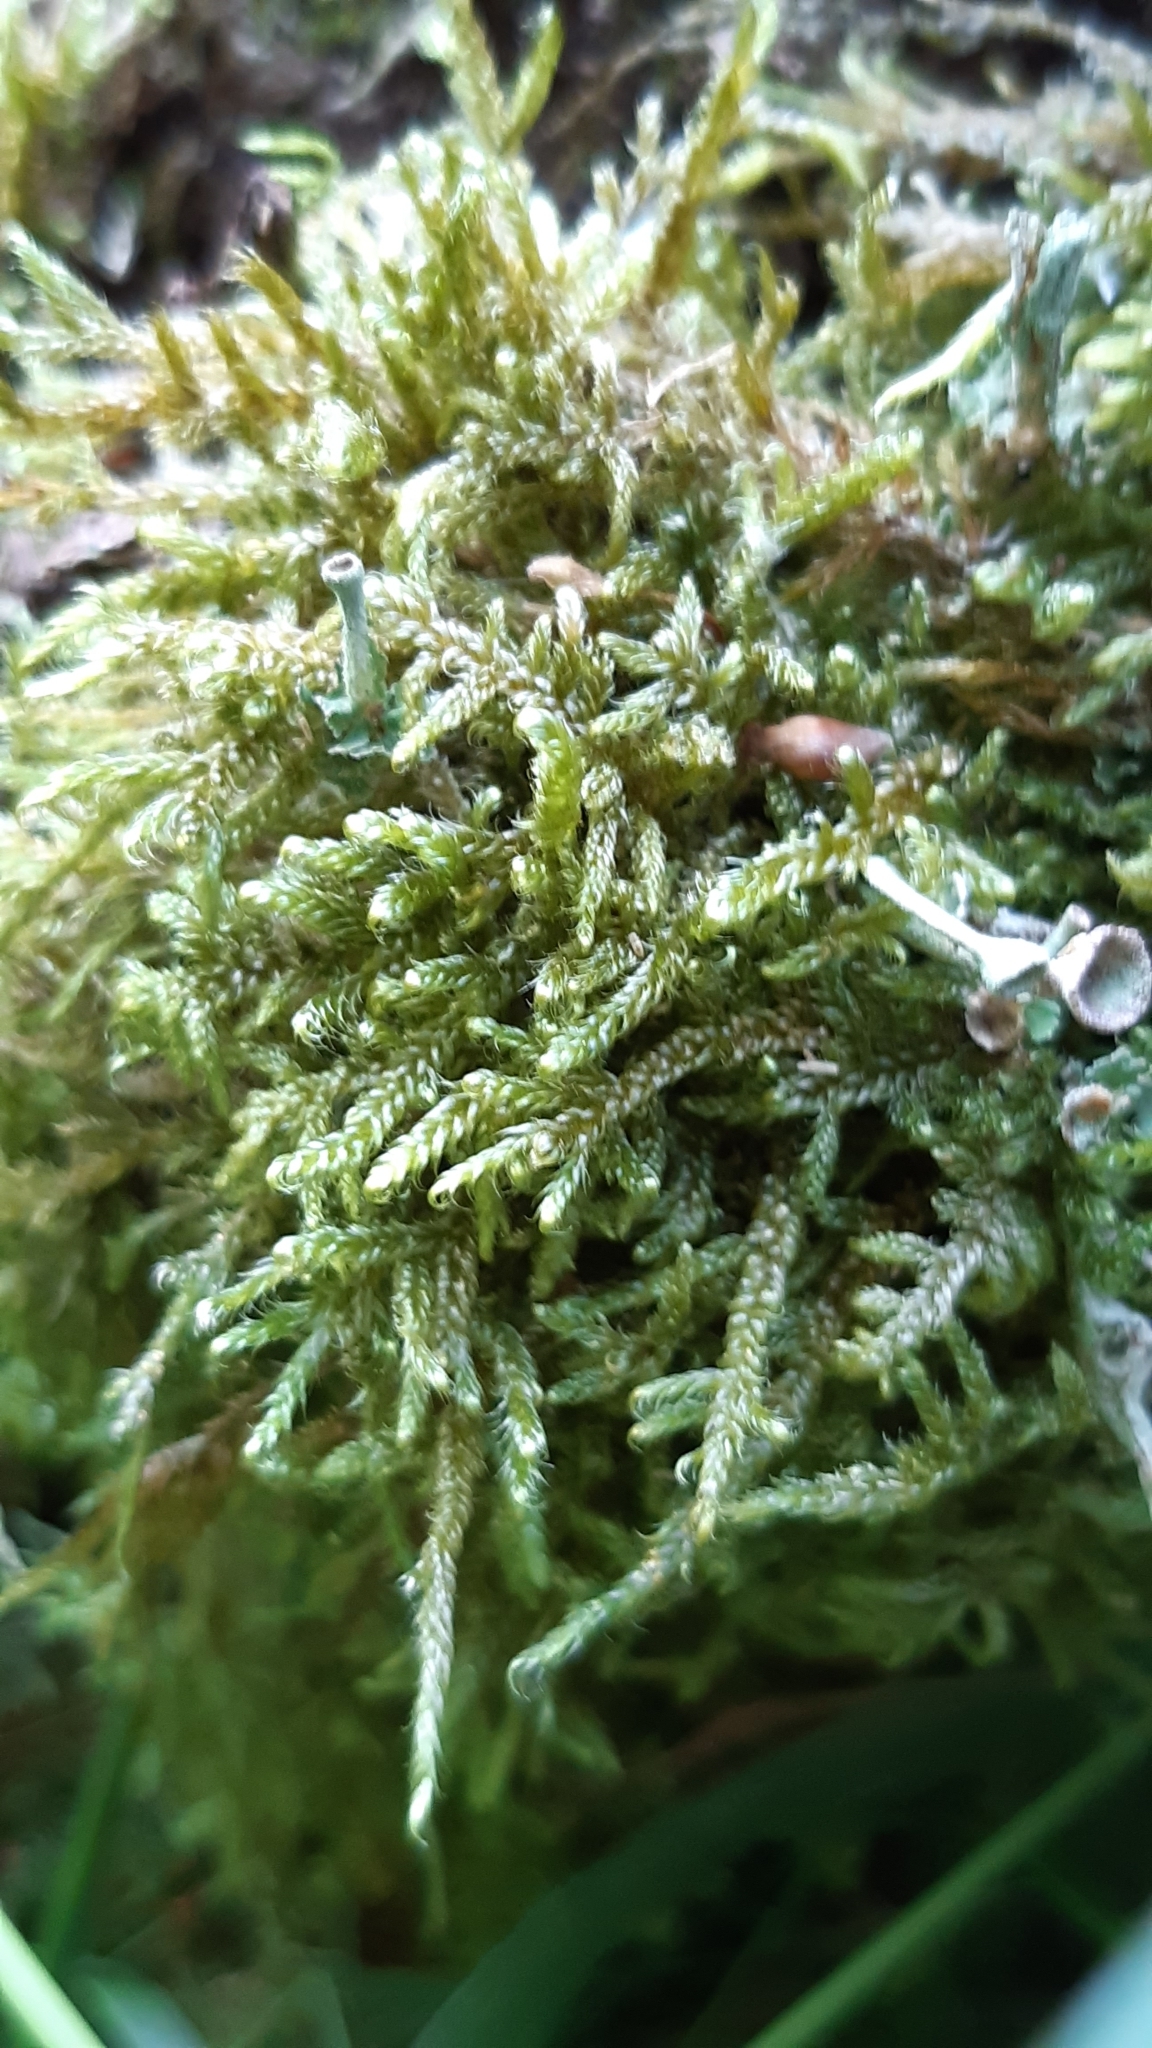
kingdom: Plantae
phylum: Bryophyta
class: Bryopsida
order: Hypnales
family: Hypnaceae
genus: Hypnum
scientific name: Hypnum cupressiforme
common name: Cypress-leaved plait-moss
